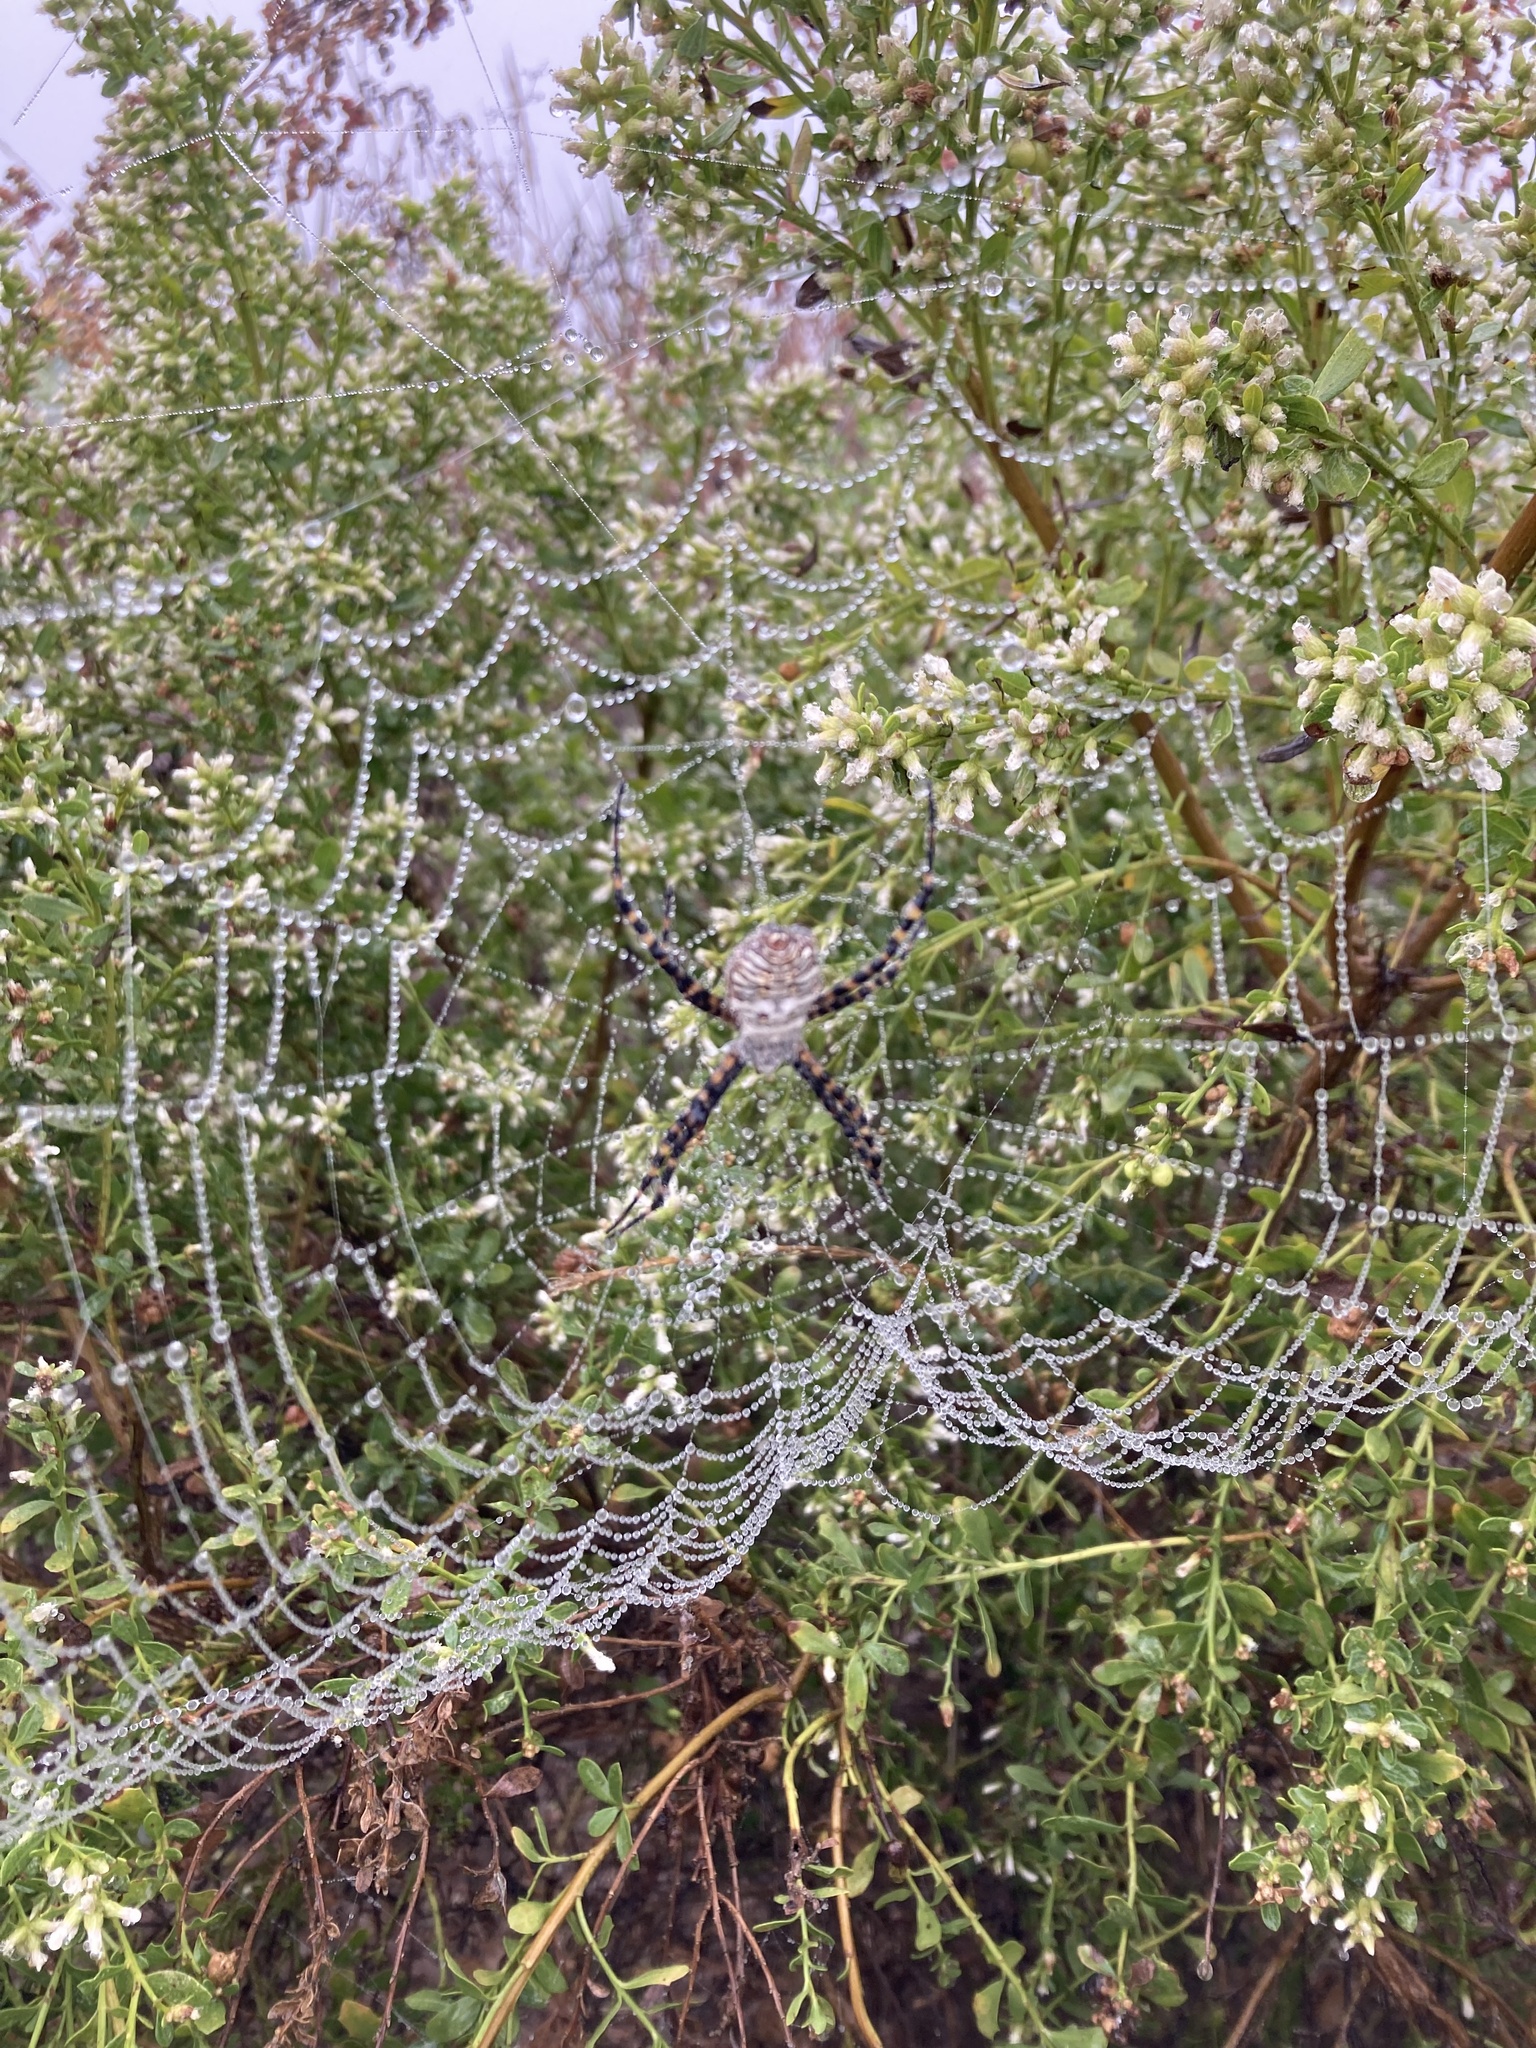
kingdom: Animalia
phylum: Arthropoda
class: Arachnida
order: Araneae
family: Araneidae
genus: Argiope
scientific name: Argiope trifasciata
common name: Banded garden spider
